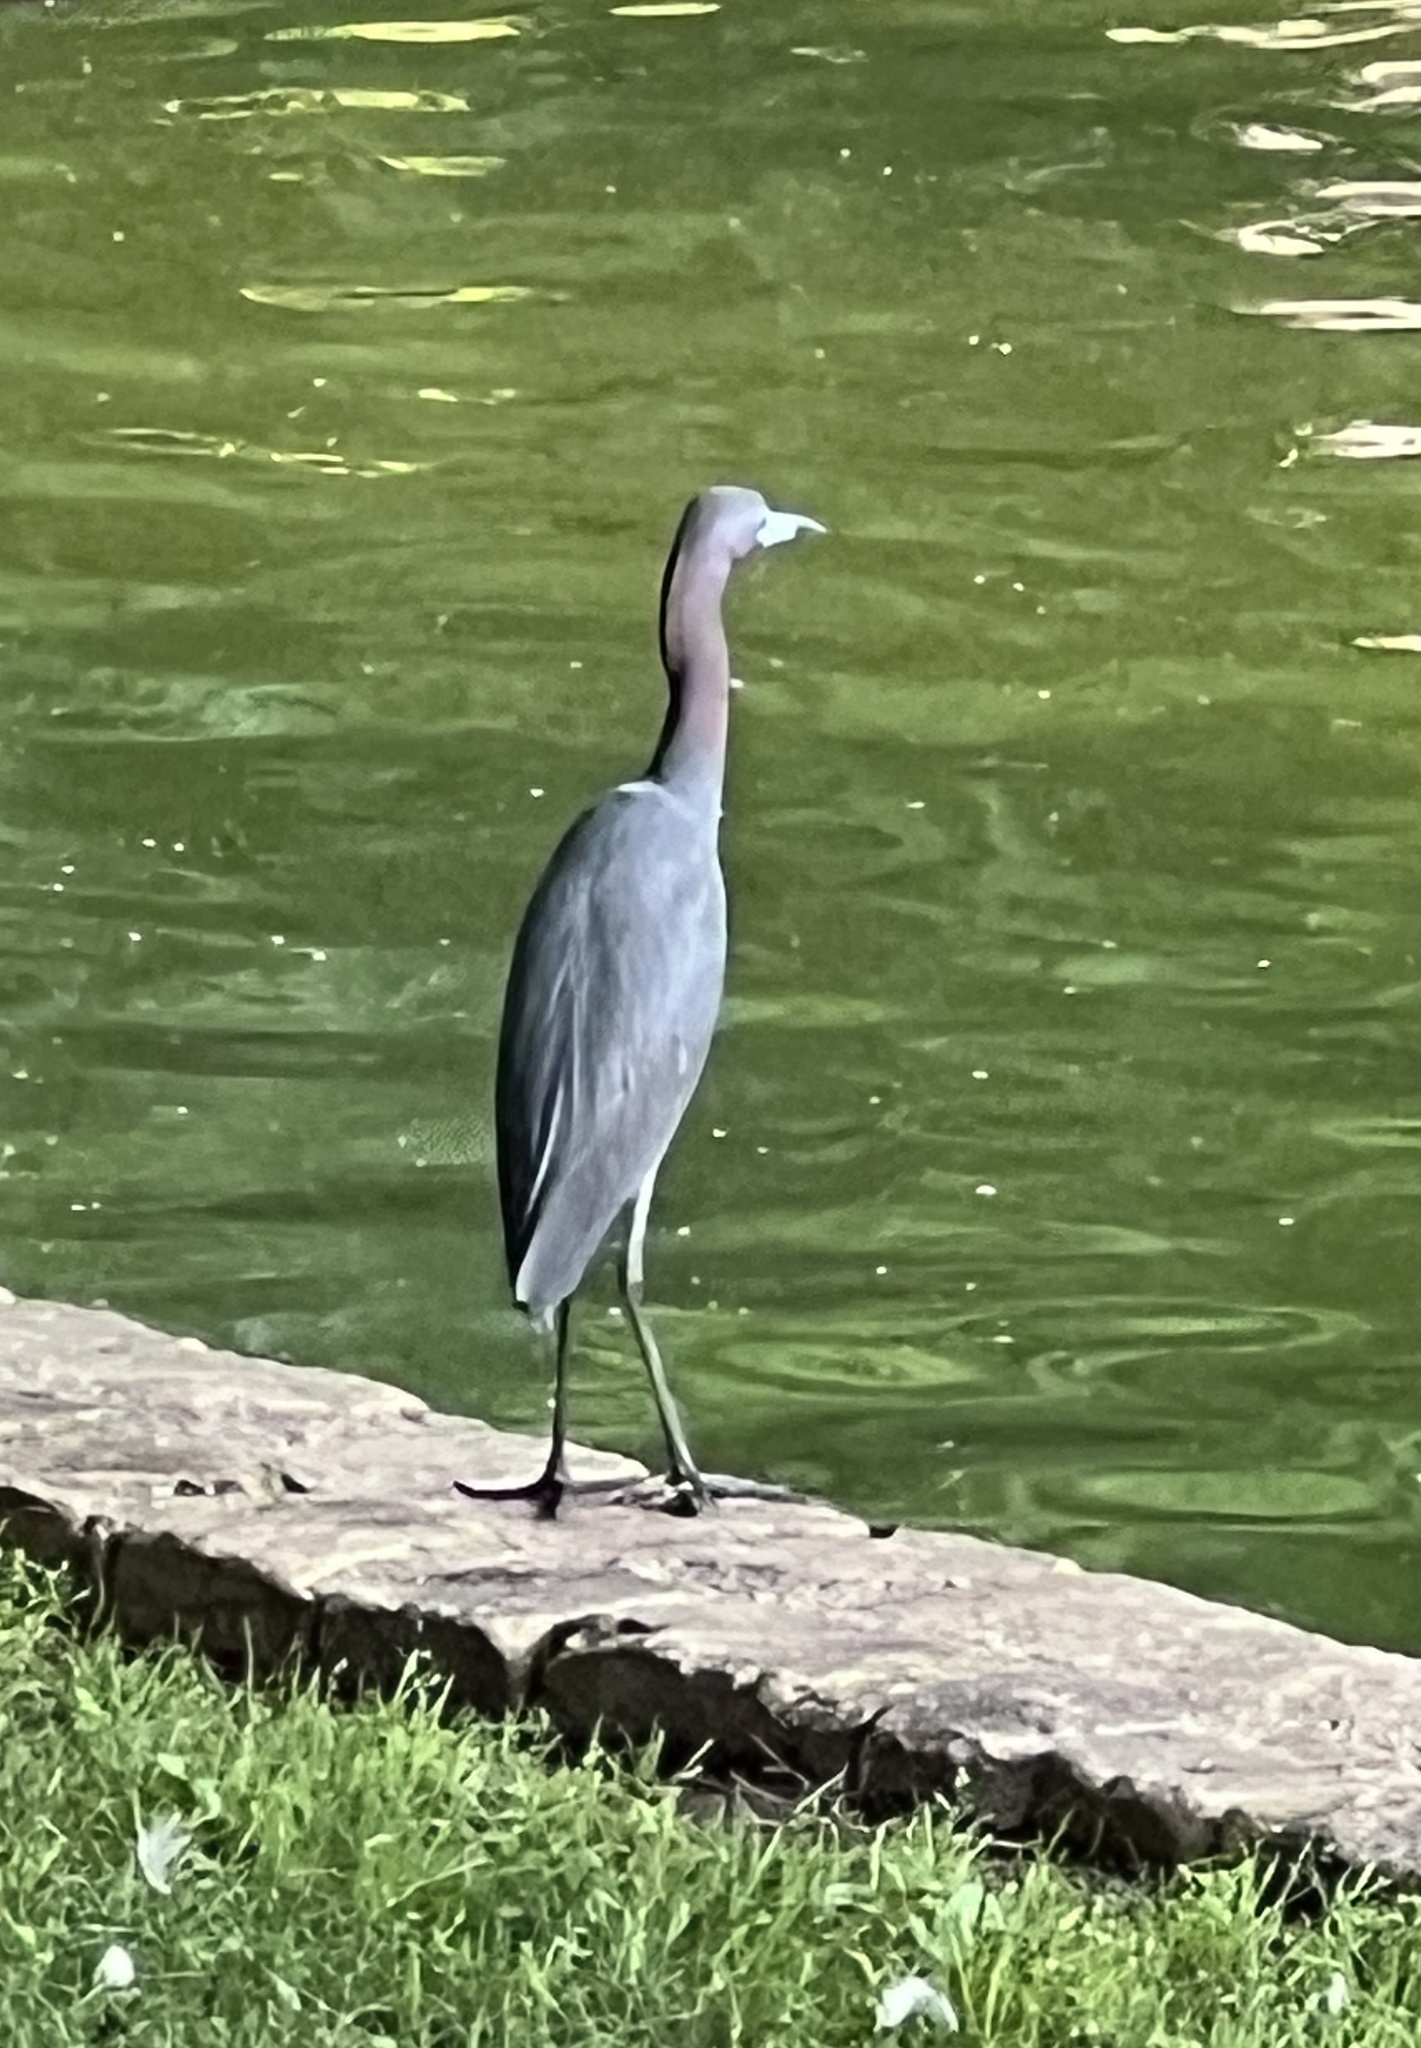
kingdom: Animalia
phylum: Chordata
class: Aves
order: Pelecaniformes
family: Ardeidae
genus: Egretta
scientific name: Egretta caerulea
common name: Little blue heron
